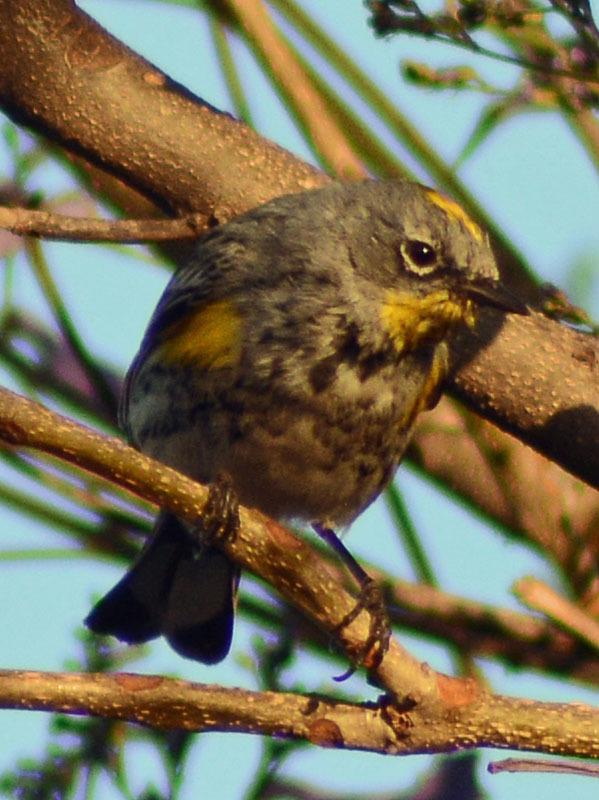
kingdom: Animalia
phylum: Chordata
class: Aves
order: Passeriformes
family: Parulidae
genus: Setophaga
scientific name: Setophaga auduboni
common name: Audubon's warbler
